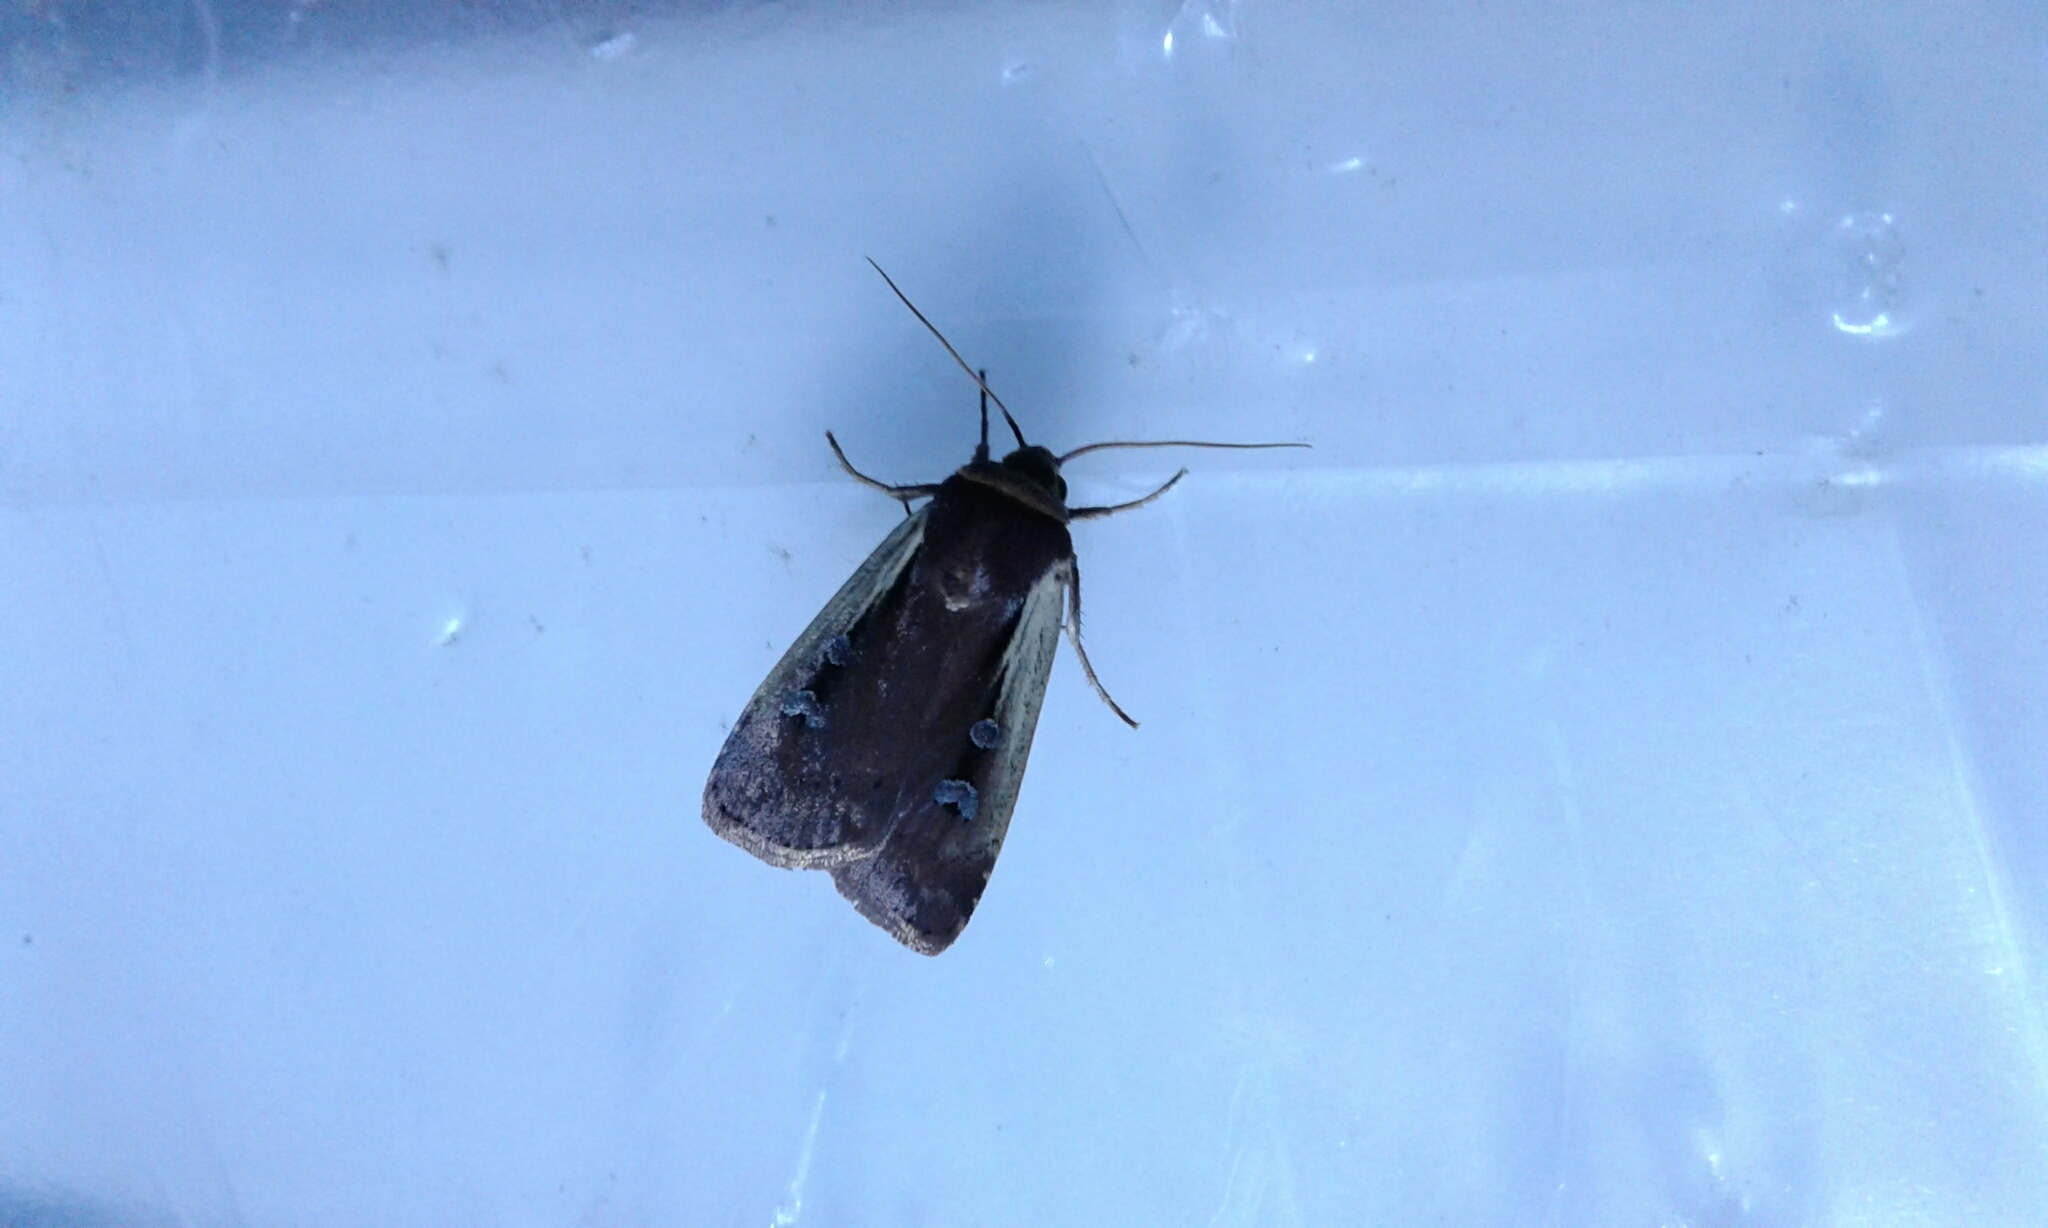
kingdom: Animalia
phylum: Arthropoda
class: Insecta
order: Lepidoptera
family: Noctuidae
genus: Ochropleura
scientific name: Ochropleura implecta
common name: Flame-shouldered dart
